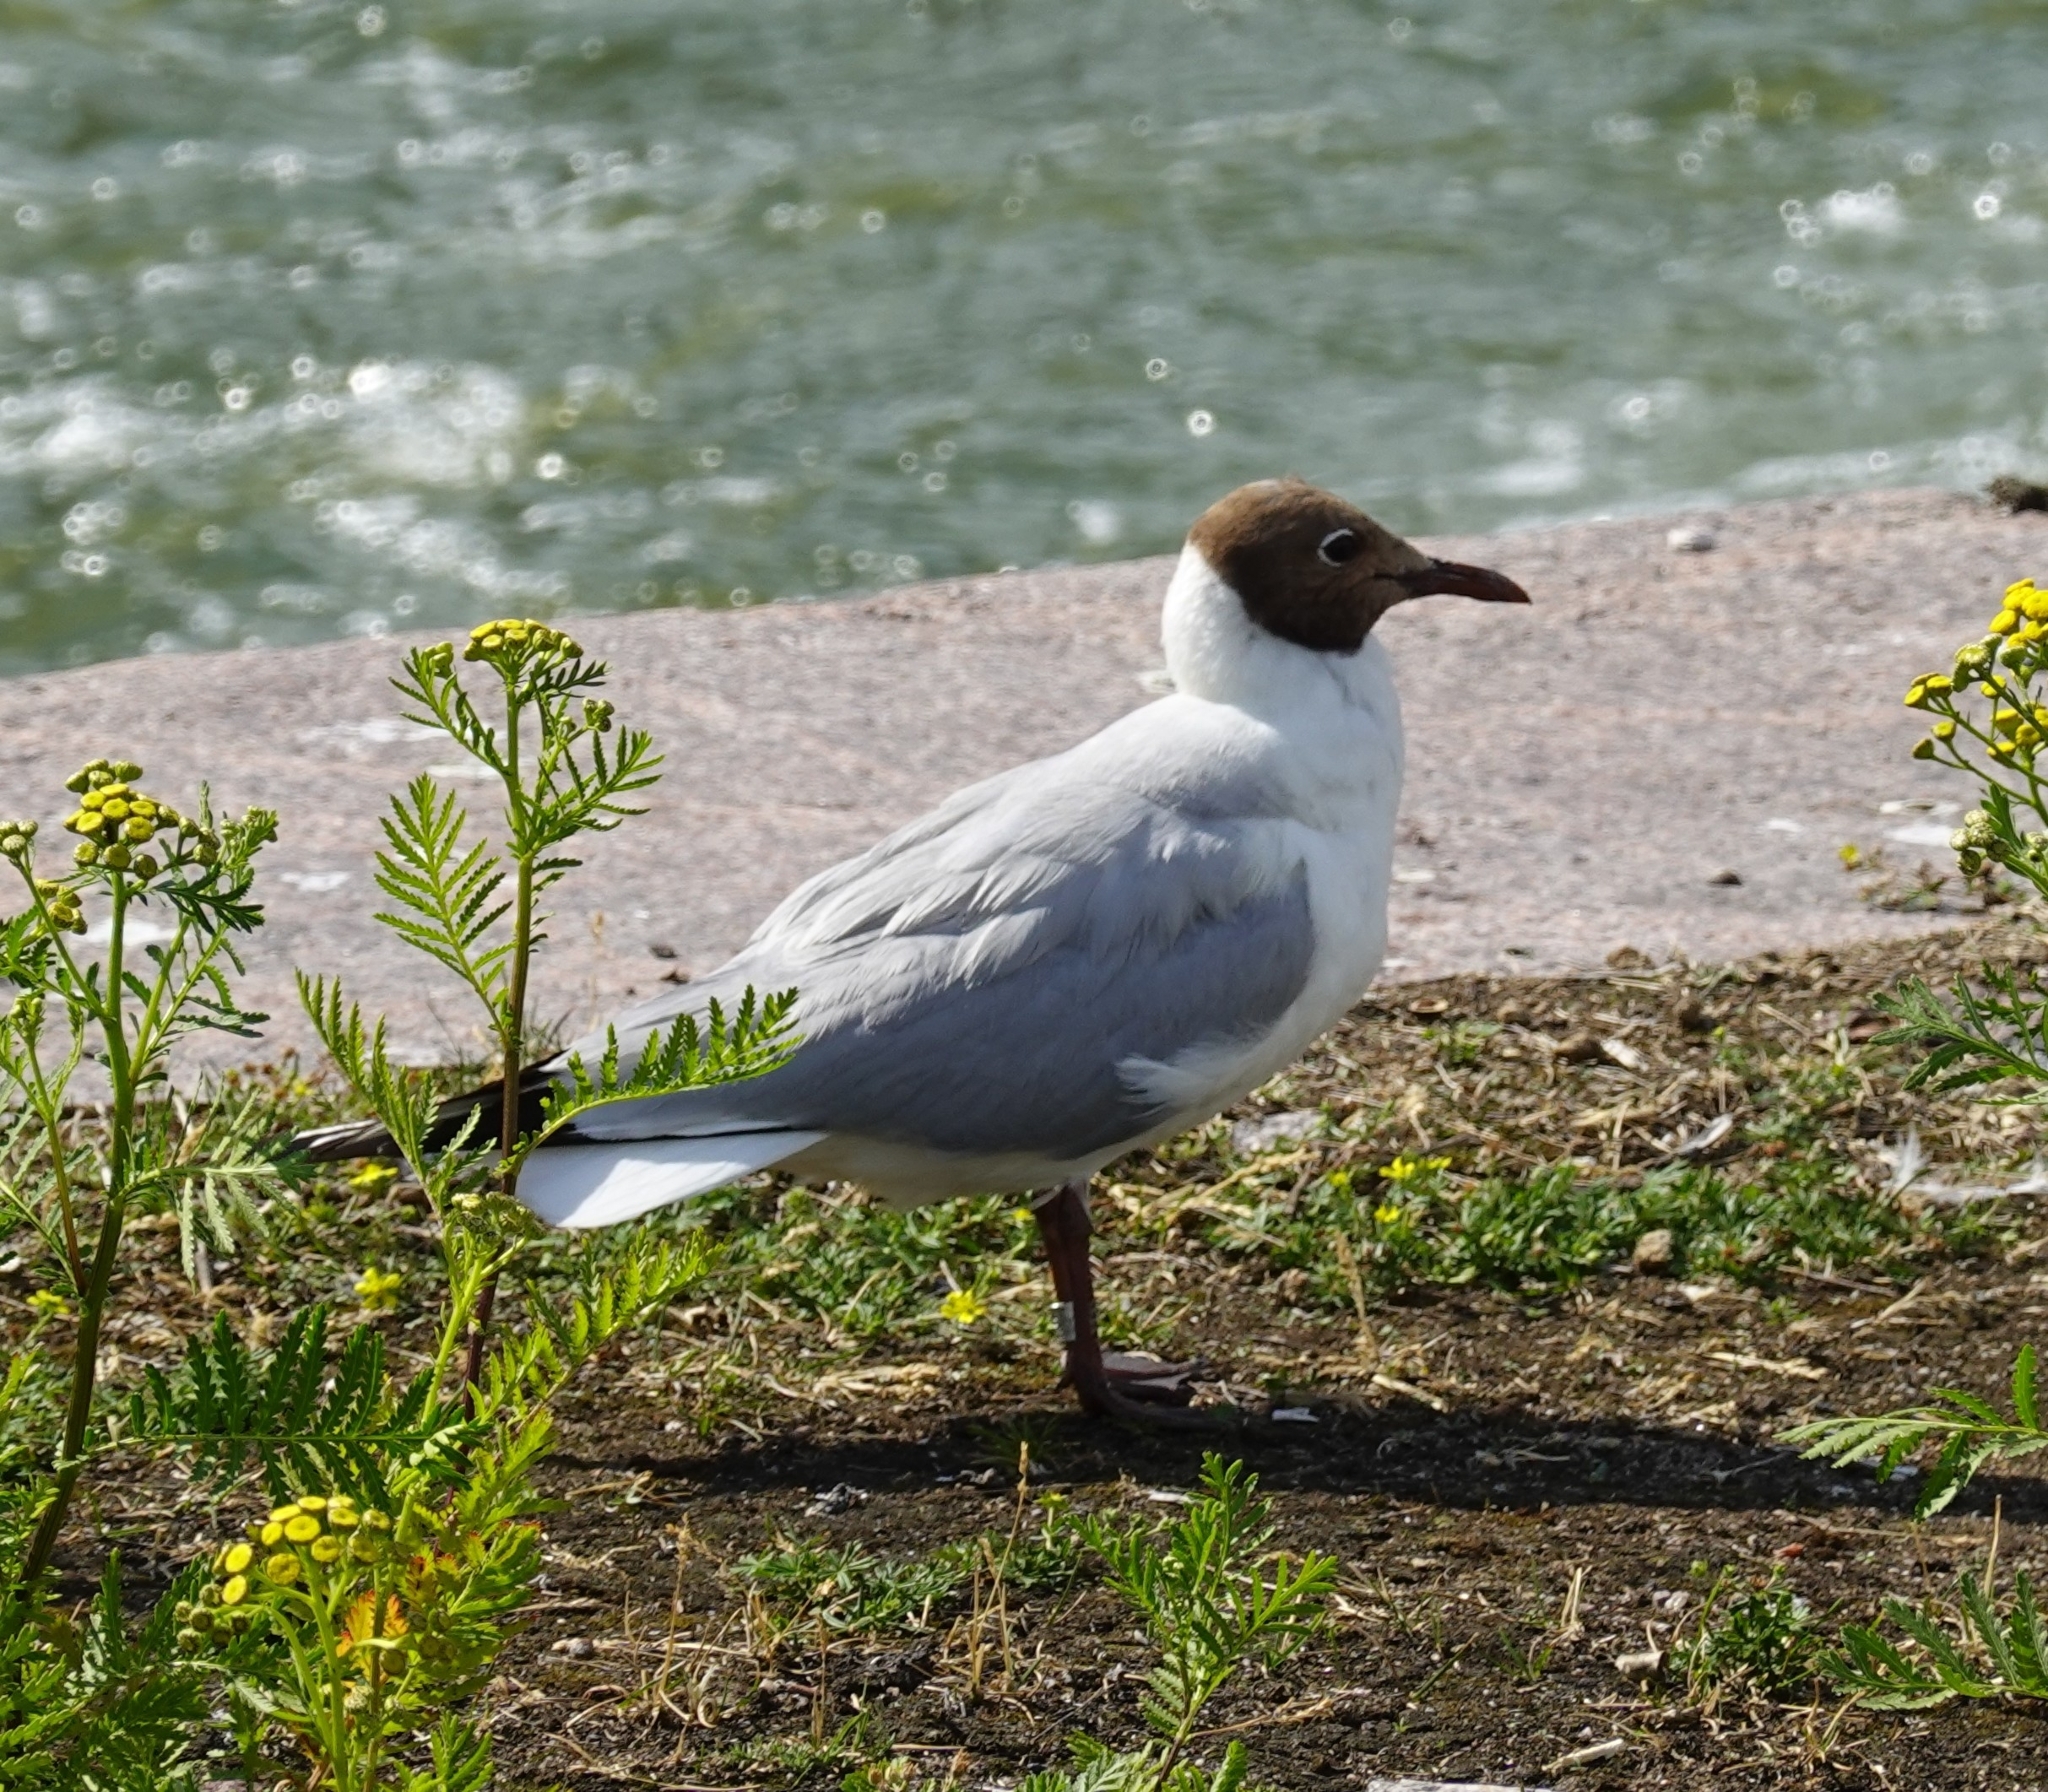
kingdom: Animalia
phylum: Chordata
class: Aves
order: Charadriiformes
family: Laridae
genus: Chroicocephalus
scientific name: Chroicocephalus ridibundus
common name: Black-headed gull
